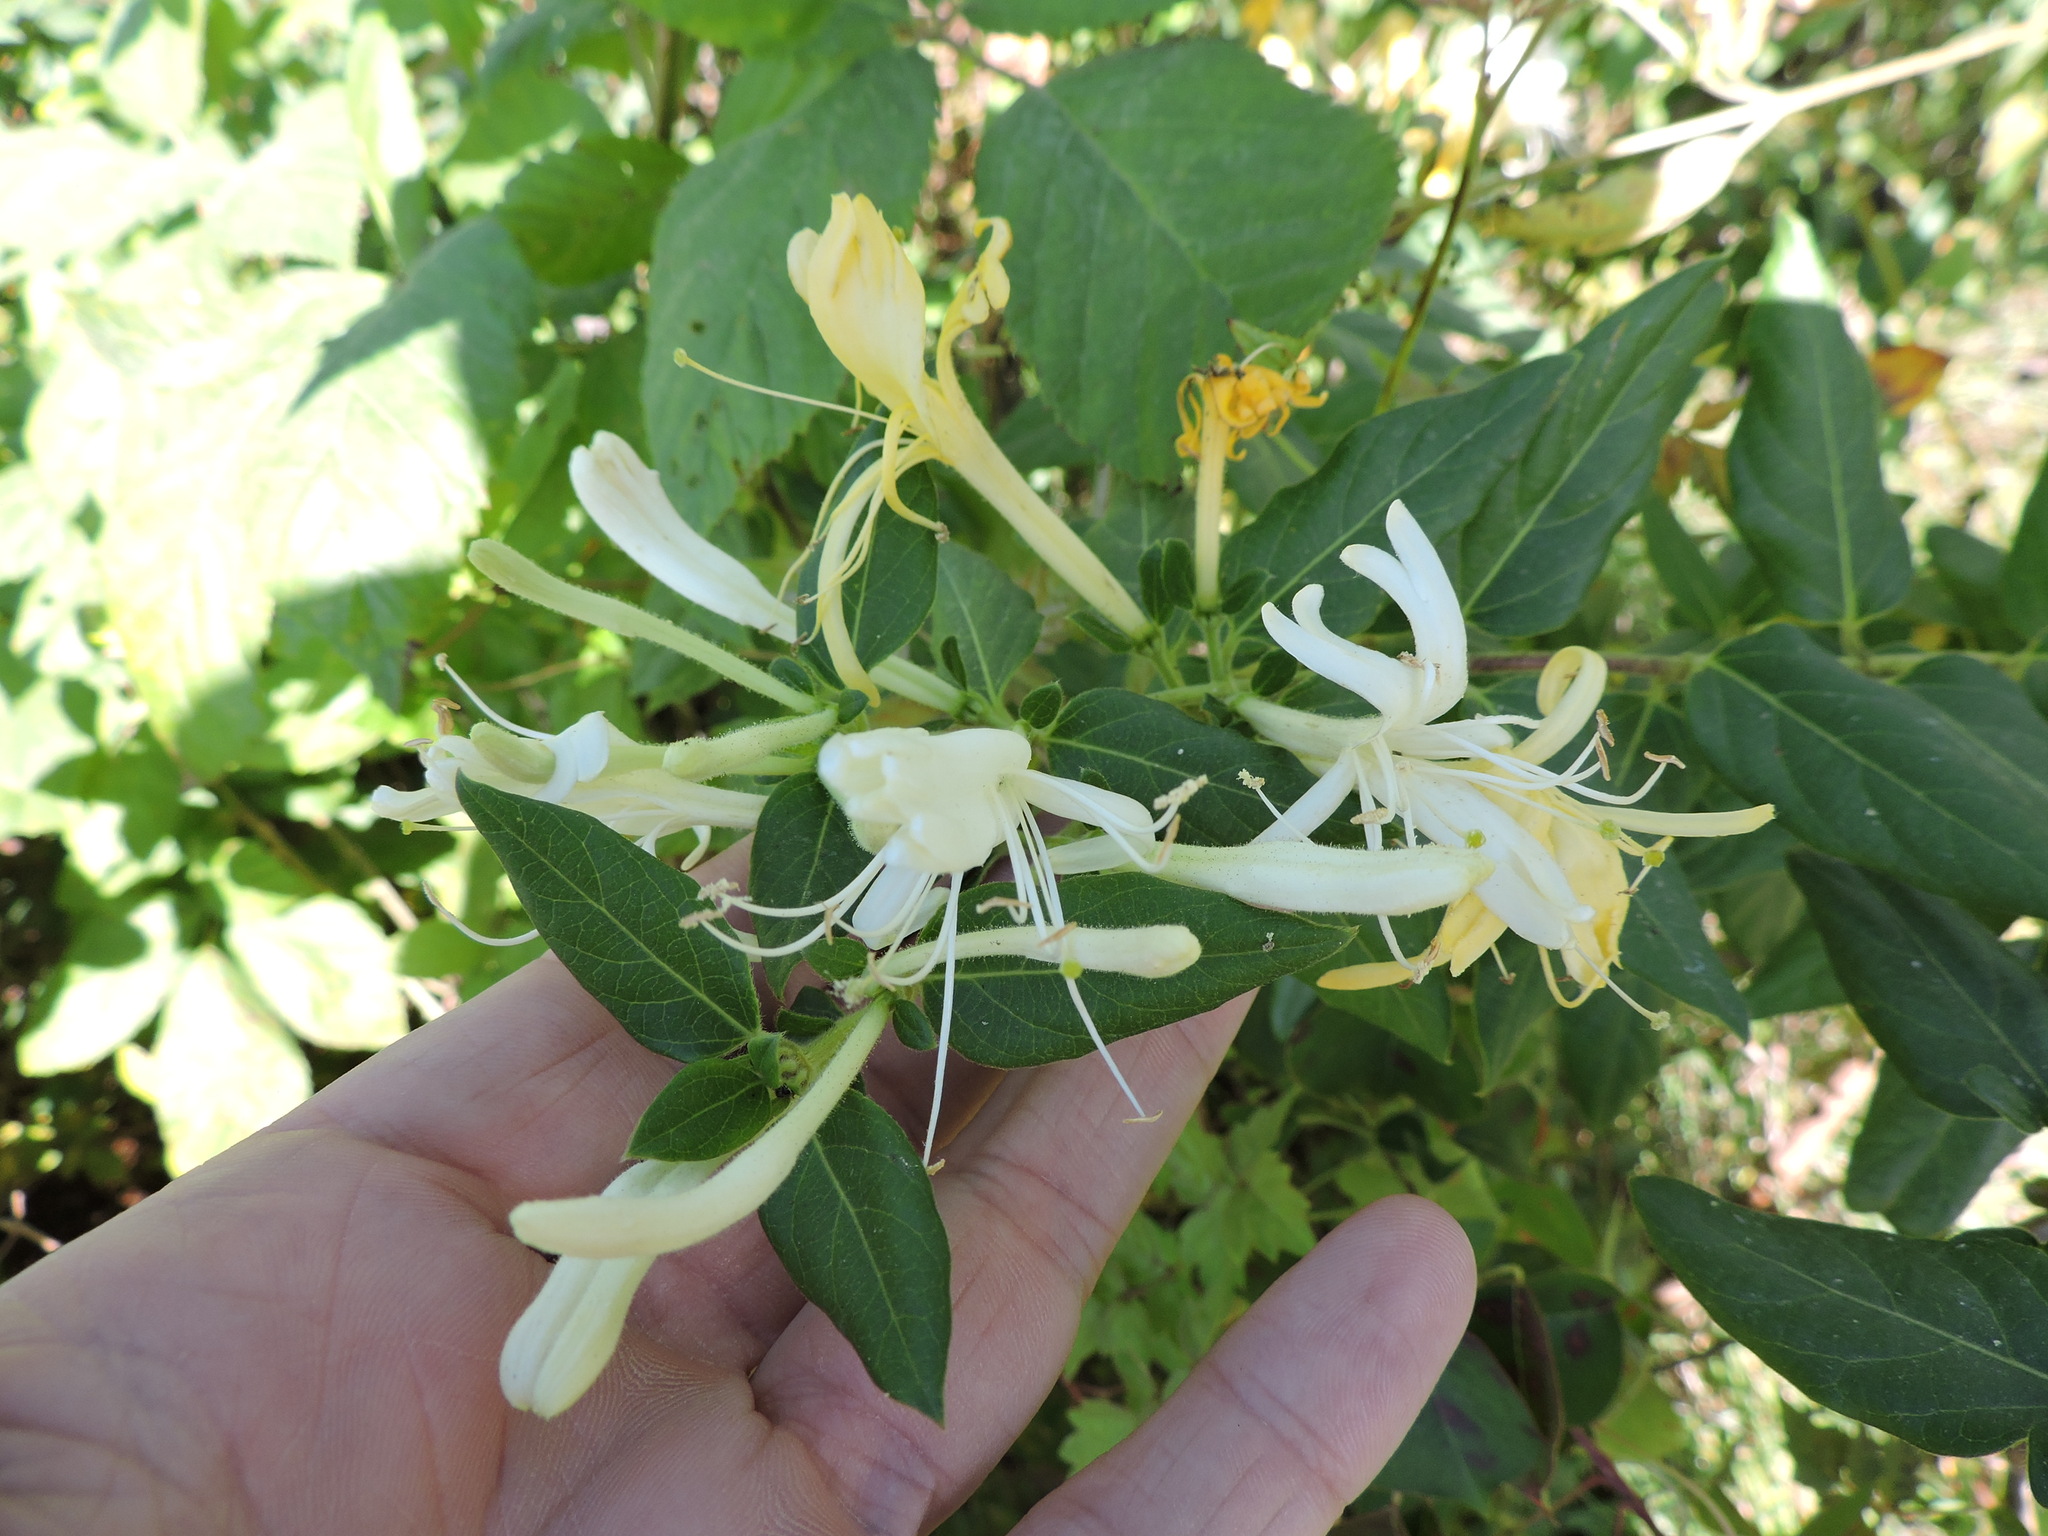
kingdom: Plantae
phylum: Tracheophyta
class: Magnoliopsida
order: Dipsacales
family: Caprifoliaceae
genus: Lonicera
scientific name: Lonicera japonica
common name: Japanese honeysuckle
